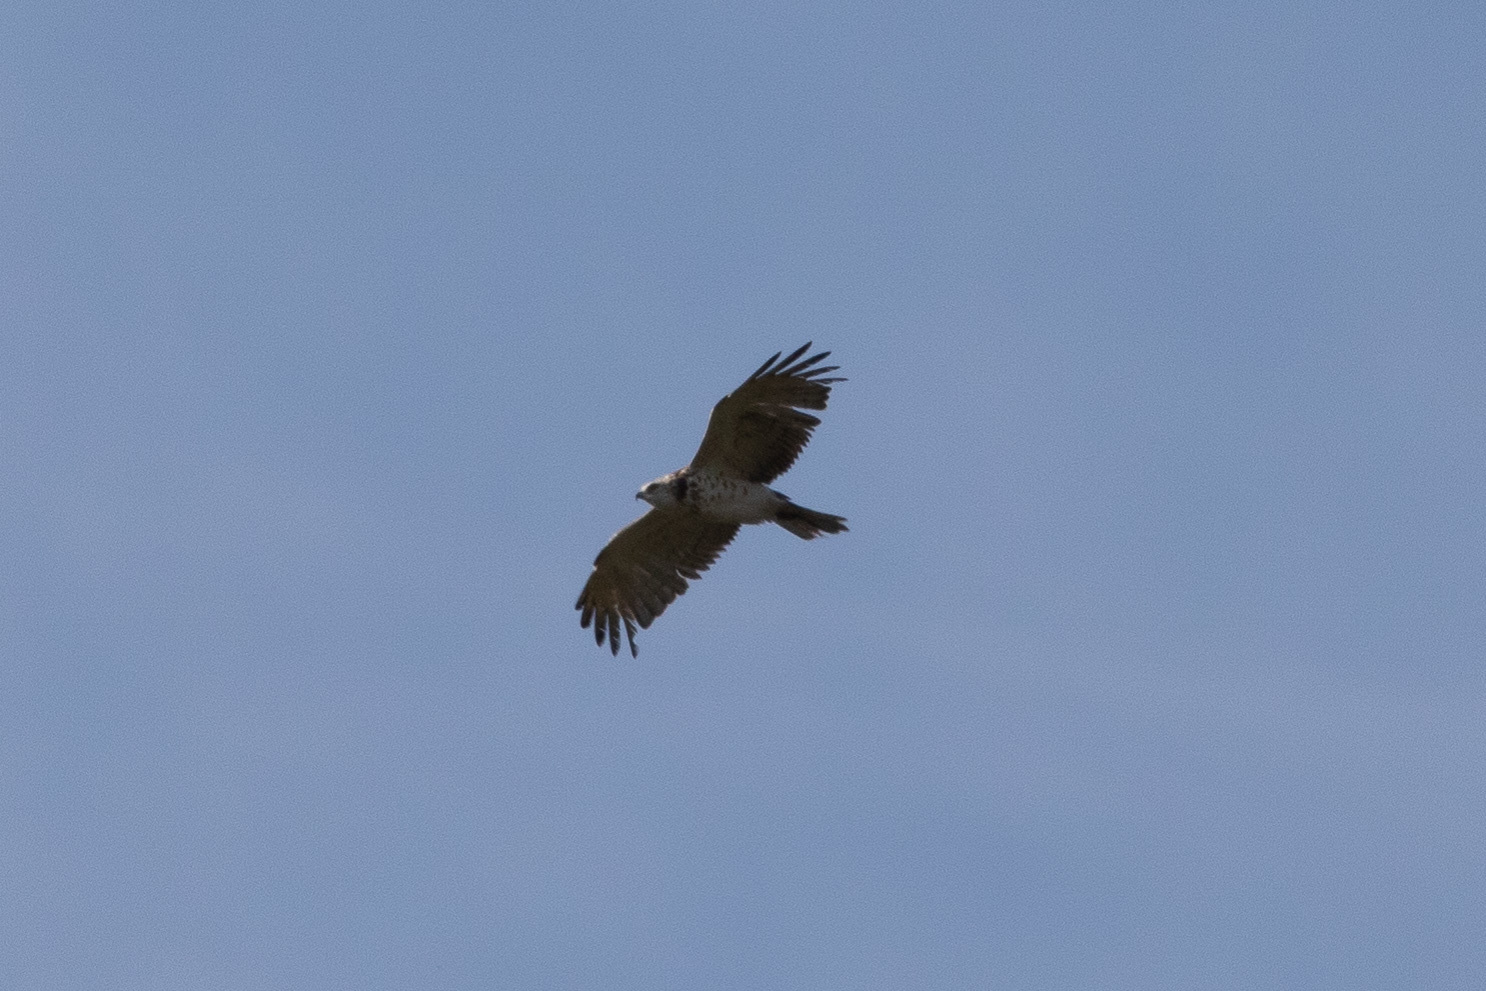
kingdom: Animalia
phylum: Chordata
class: Aves
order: Accipitriformes
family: Accipitridae
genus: Circaetus
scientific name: Circaetus gallicus
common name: Short-toed snake eagle
